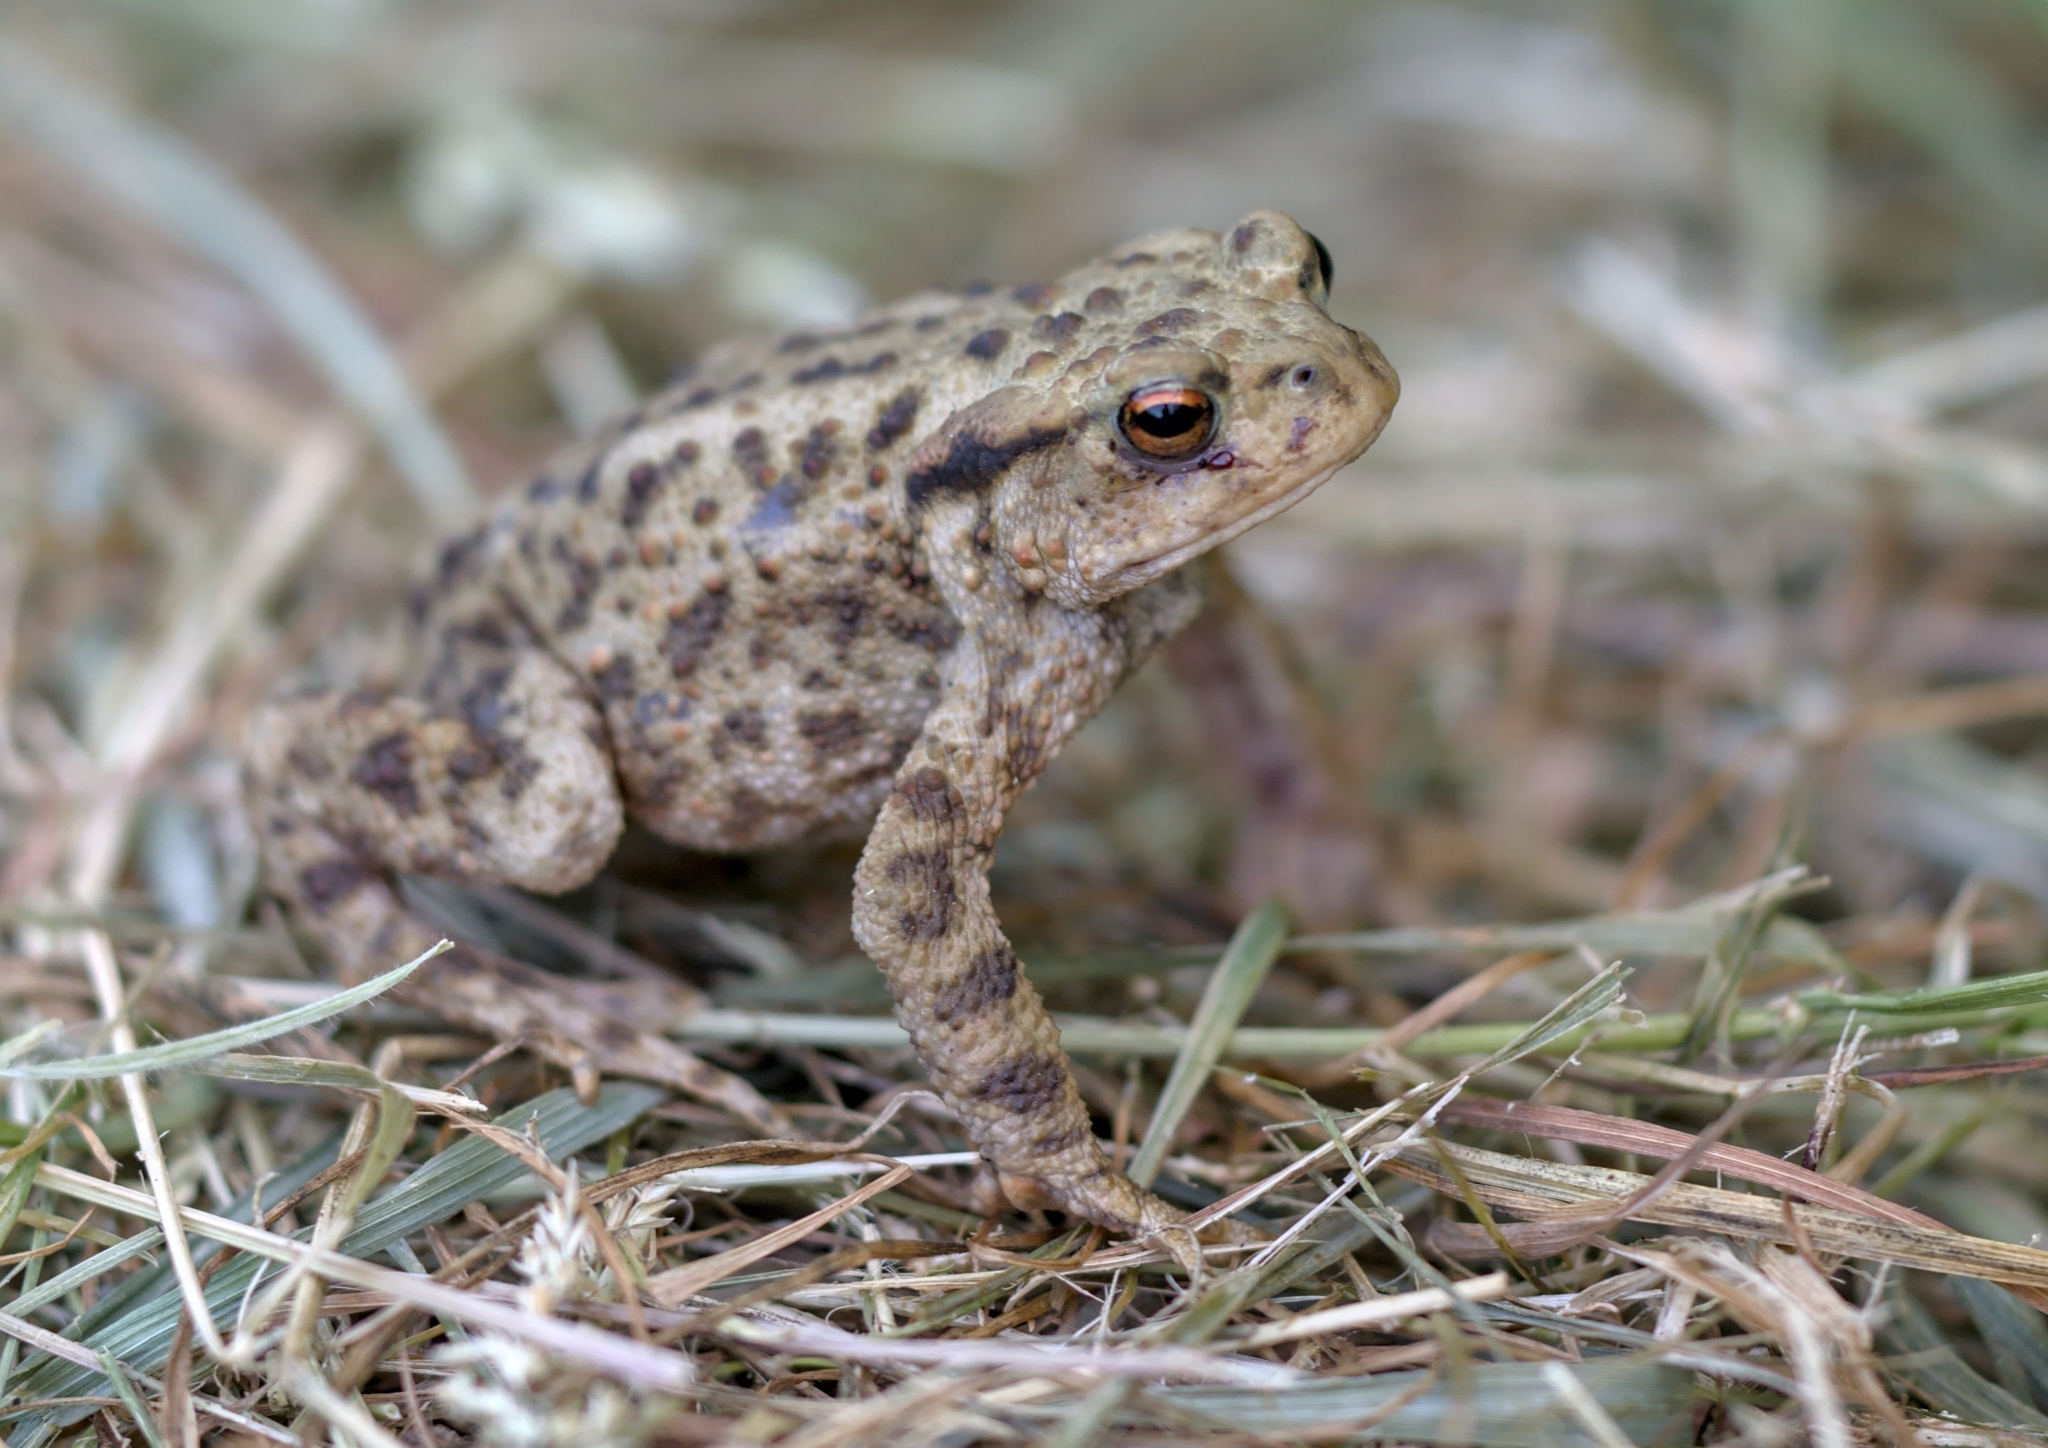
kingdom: Animalia
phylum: Chordata
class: Amphibia
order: Anura
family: Bufonidae
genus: Bufo
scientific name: Bufo bufo
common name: Common toad
